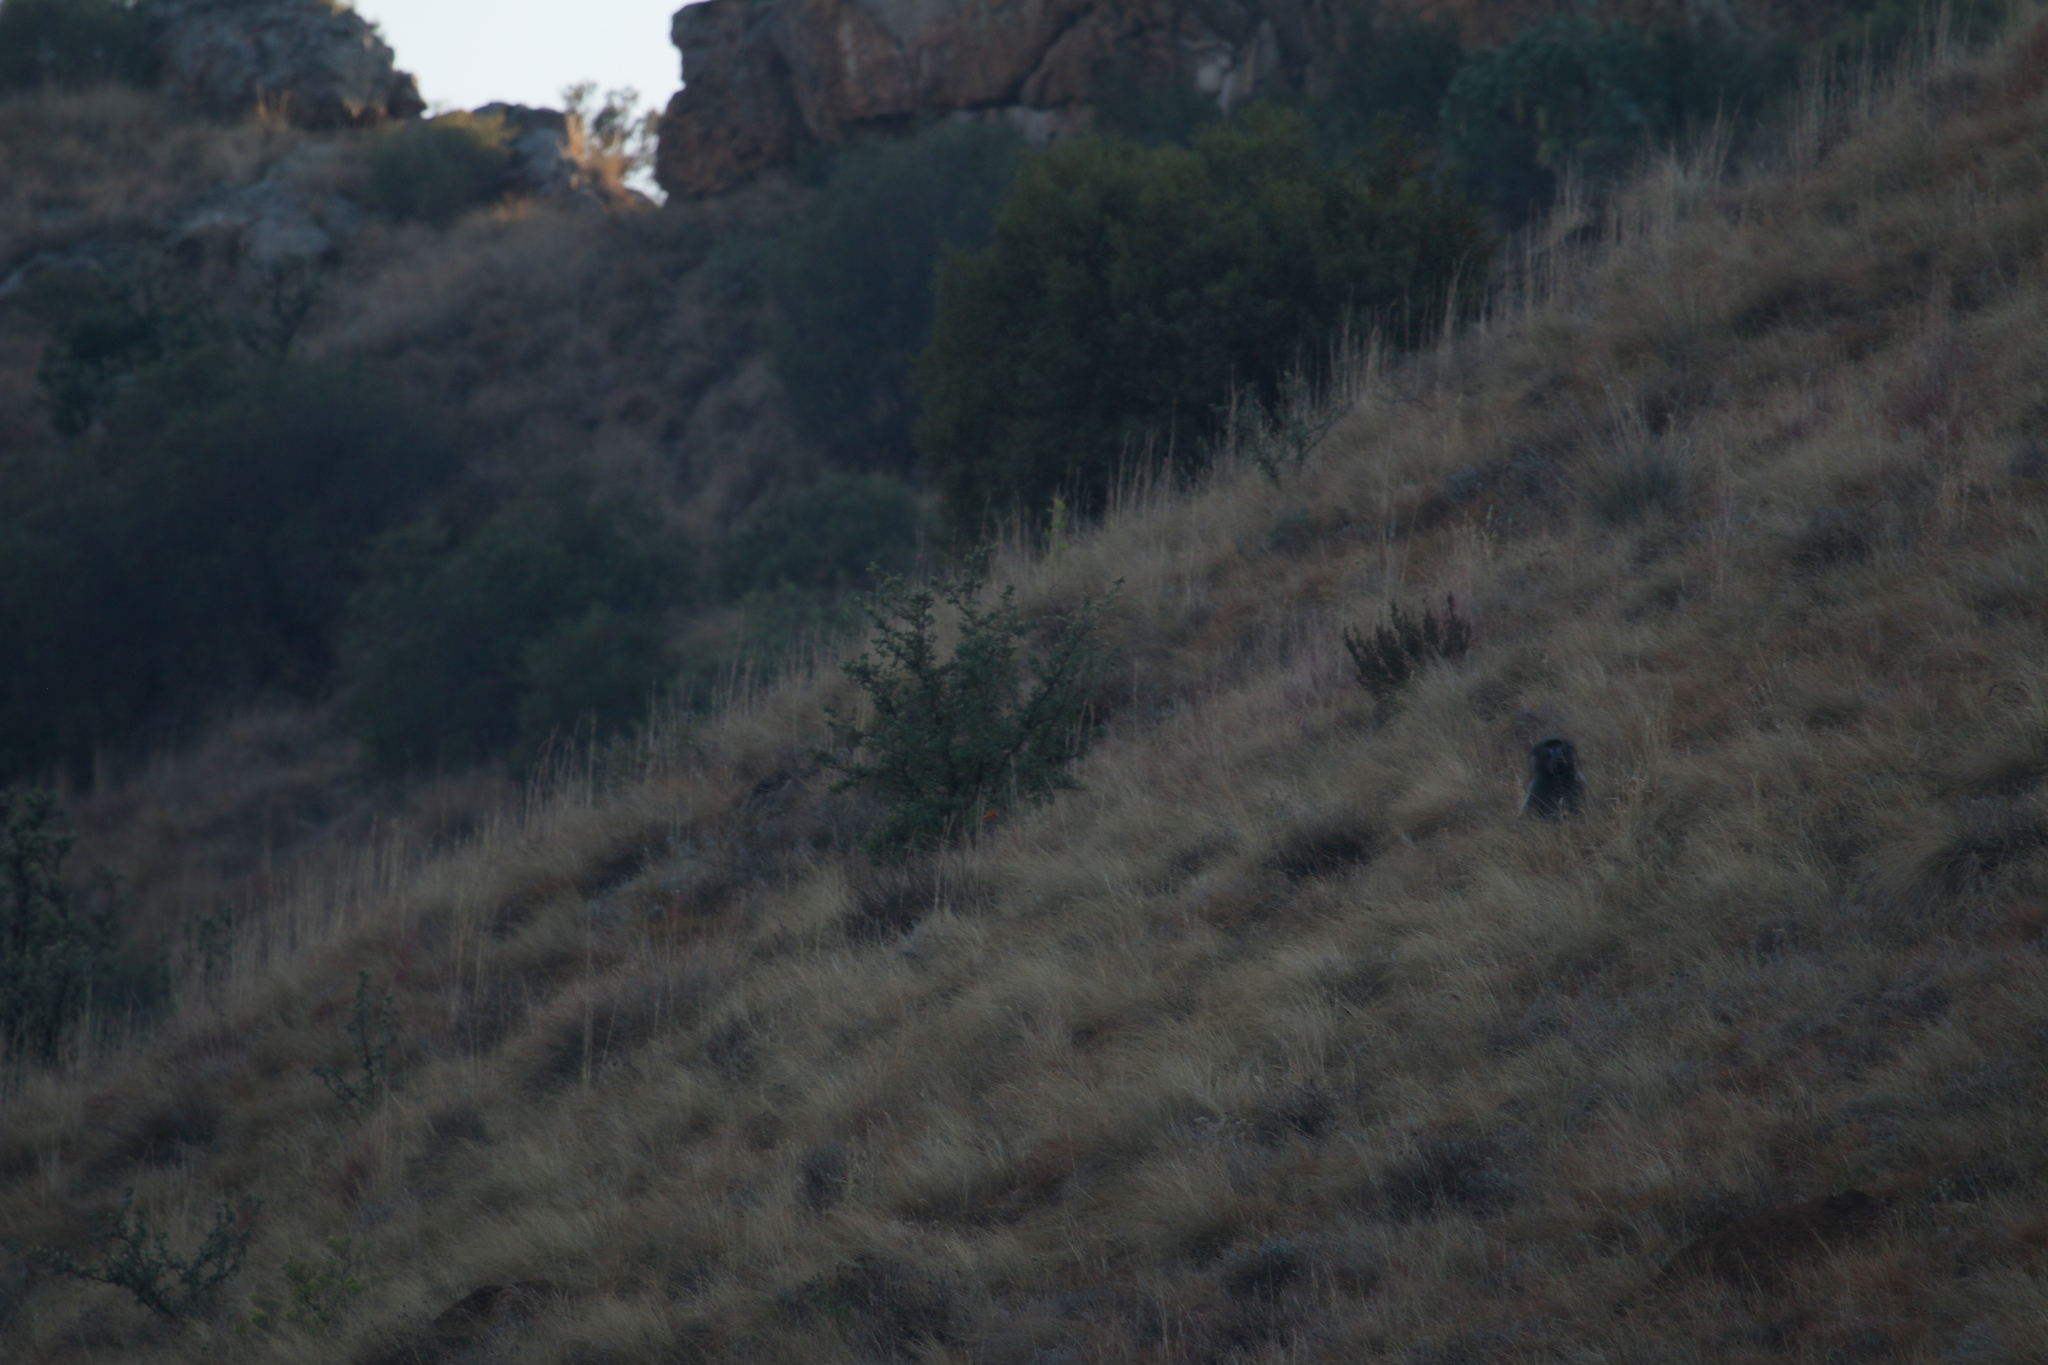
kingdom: Animalia
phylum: Chordata
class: Mammalia
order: Primates
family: Cercopithecidae
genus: Papio
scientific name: Papio ursinus
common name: Chacma baboon
